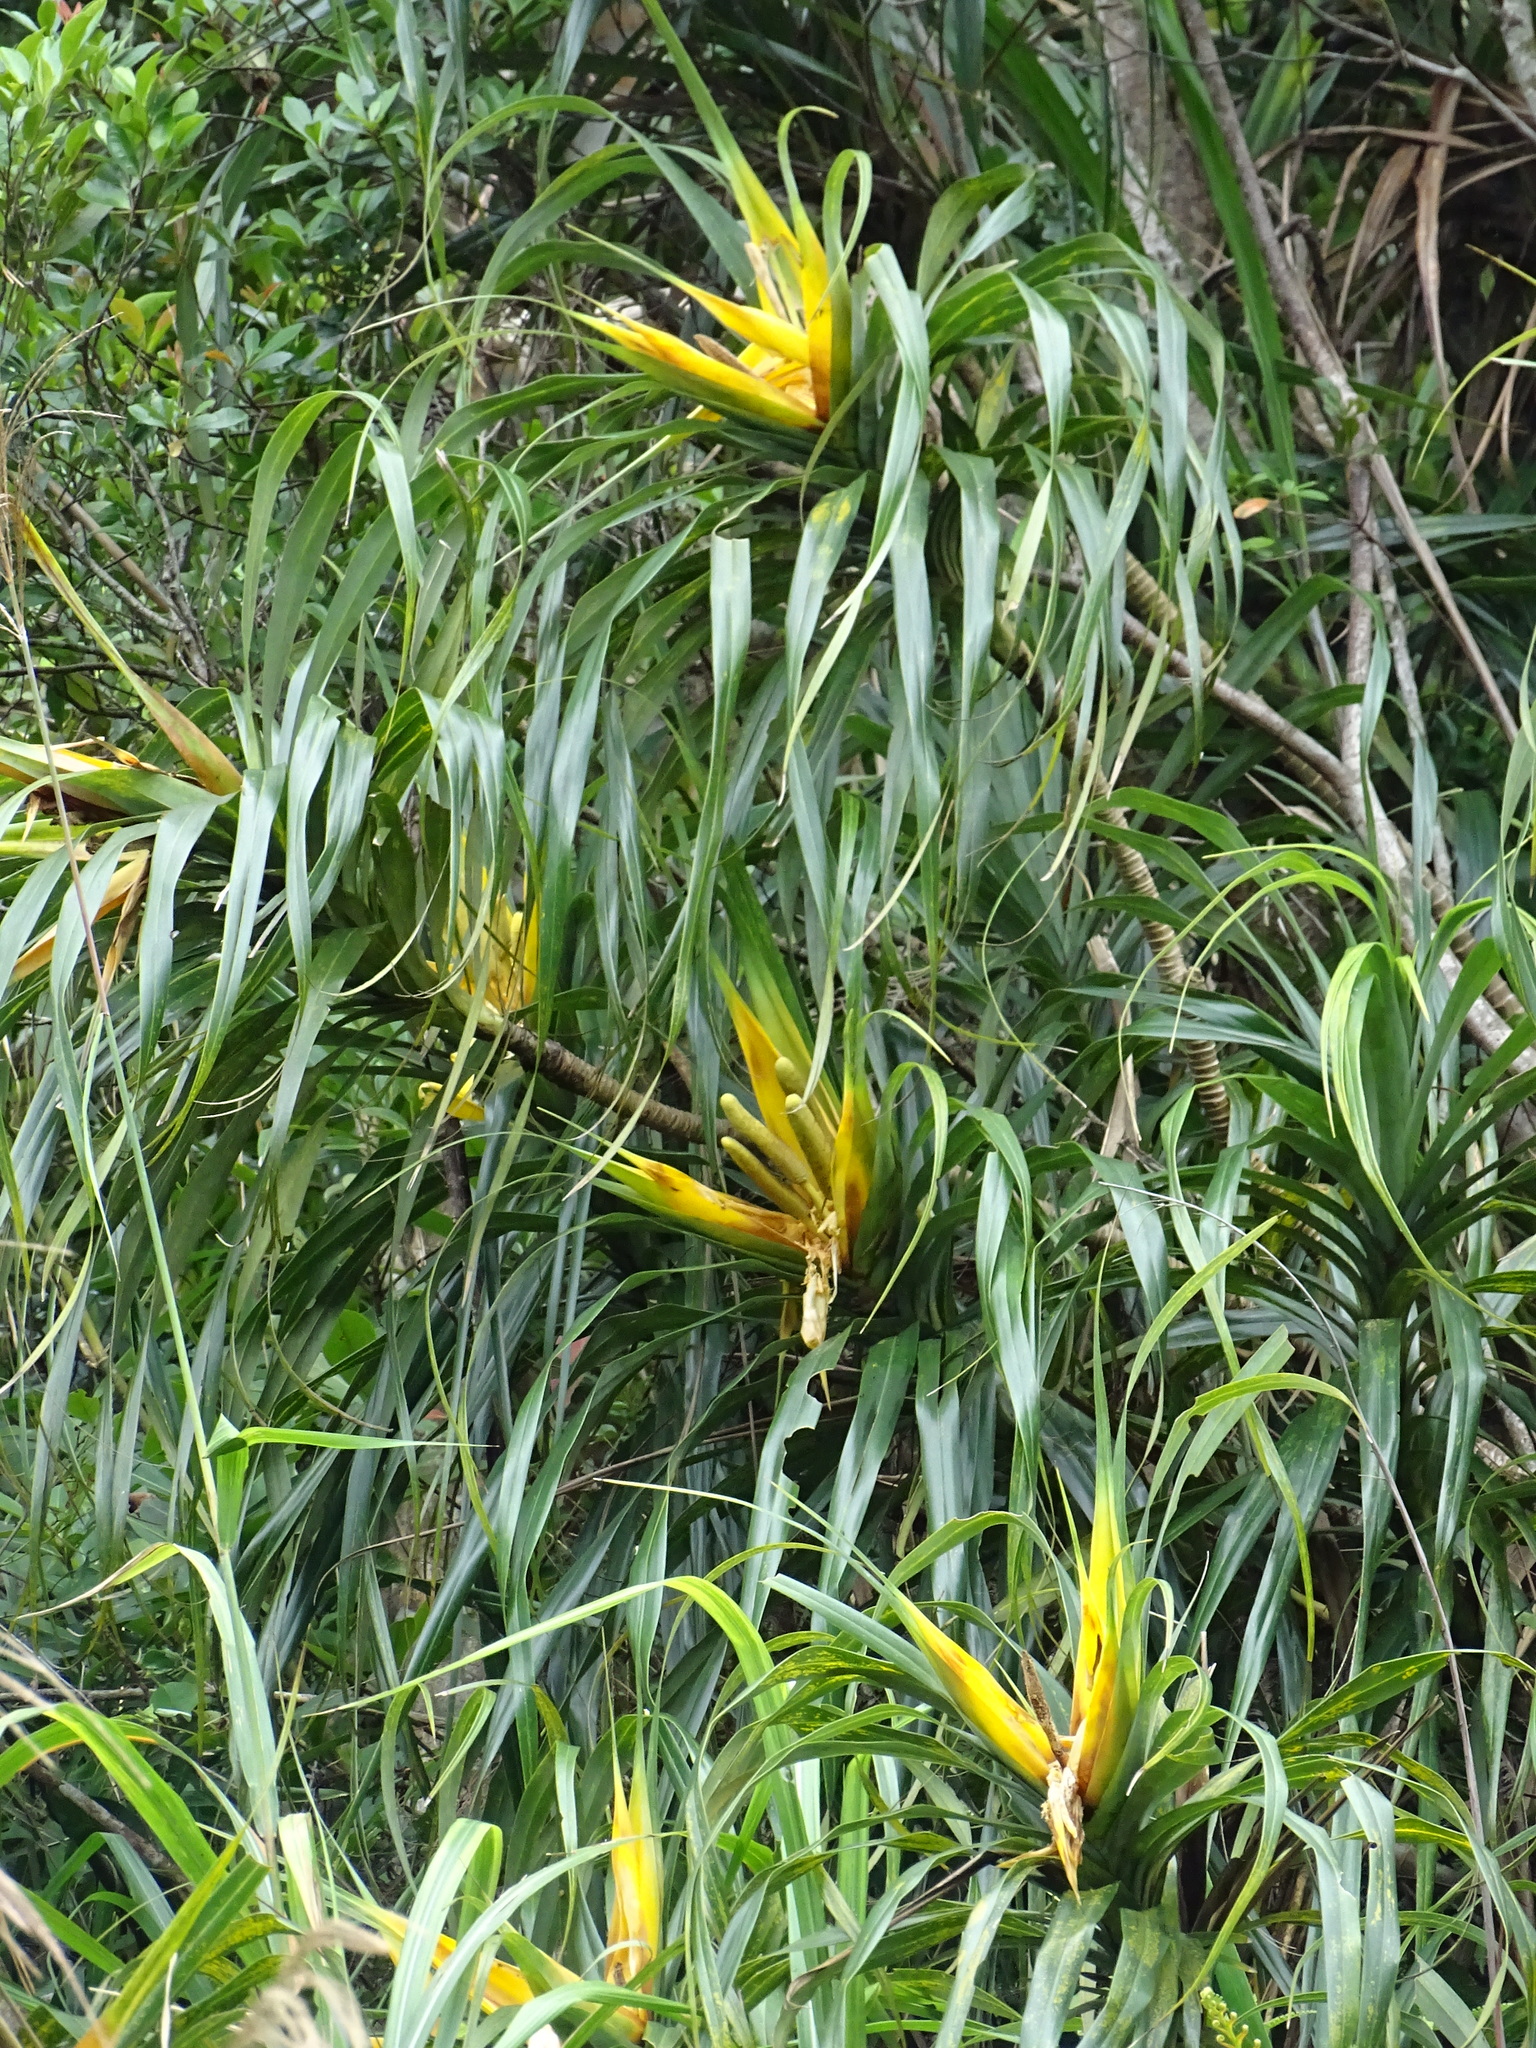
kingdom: Plantae
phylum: Tracheophyta
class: Liliopsida
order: Pandanales
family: Pandanaceae
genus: Freycinetia
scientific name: Freycinetia formosana
